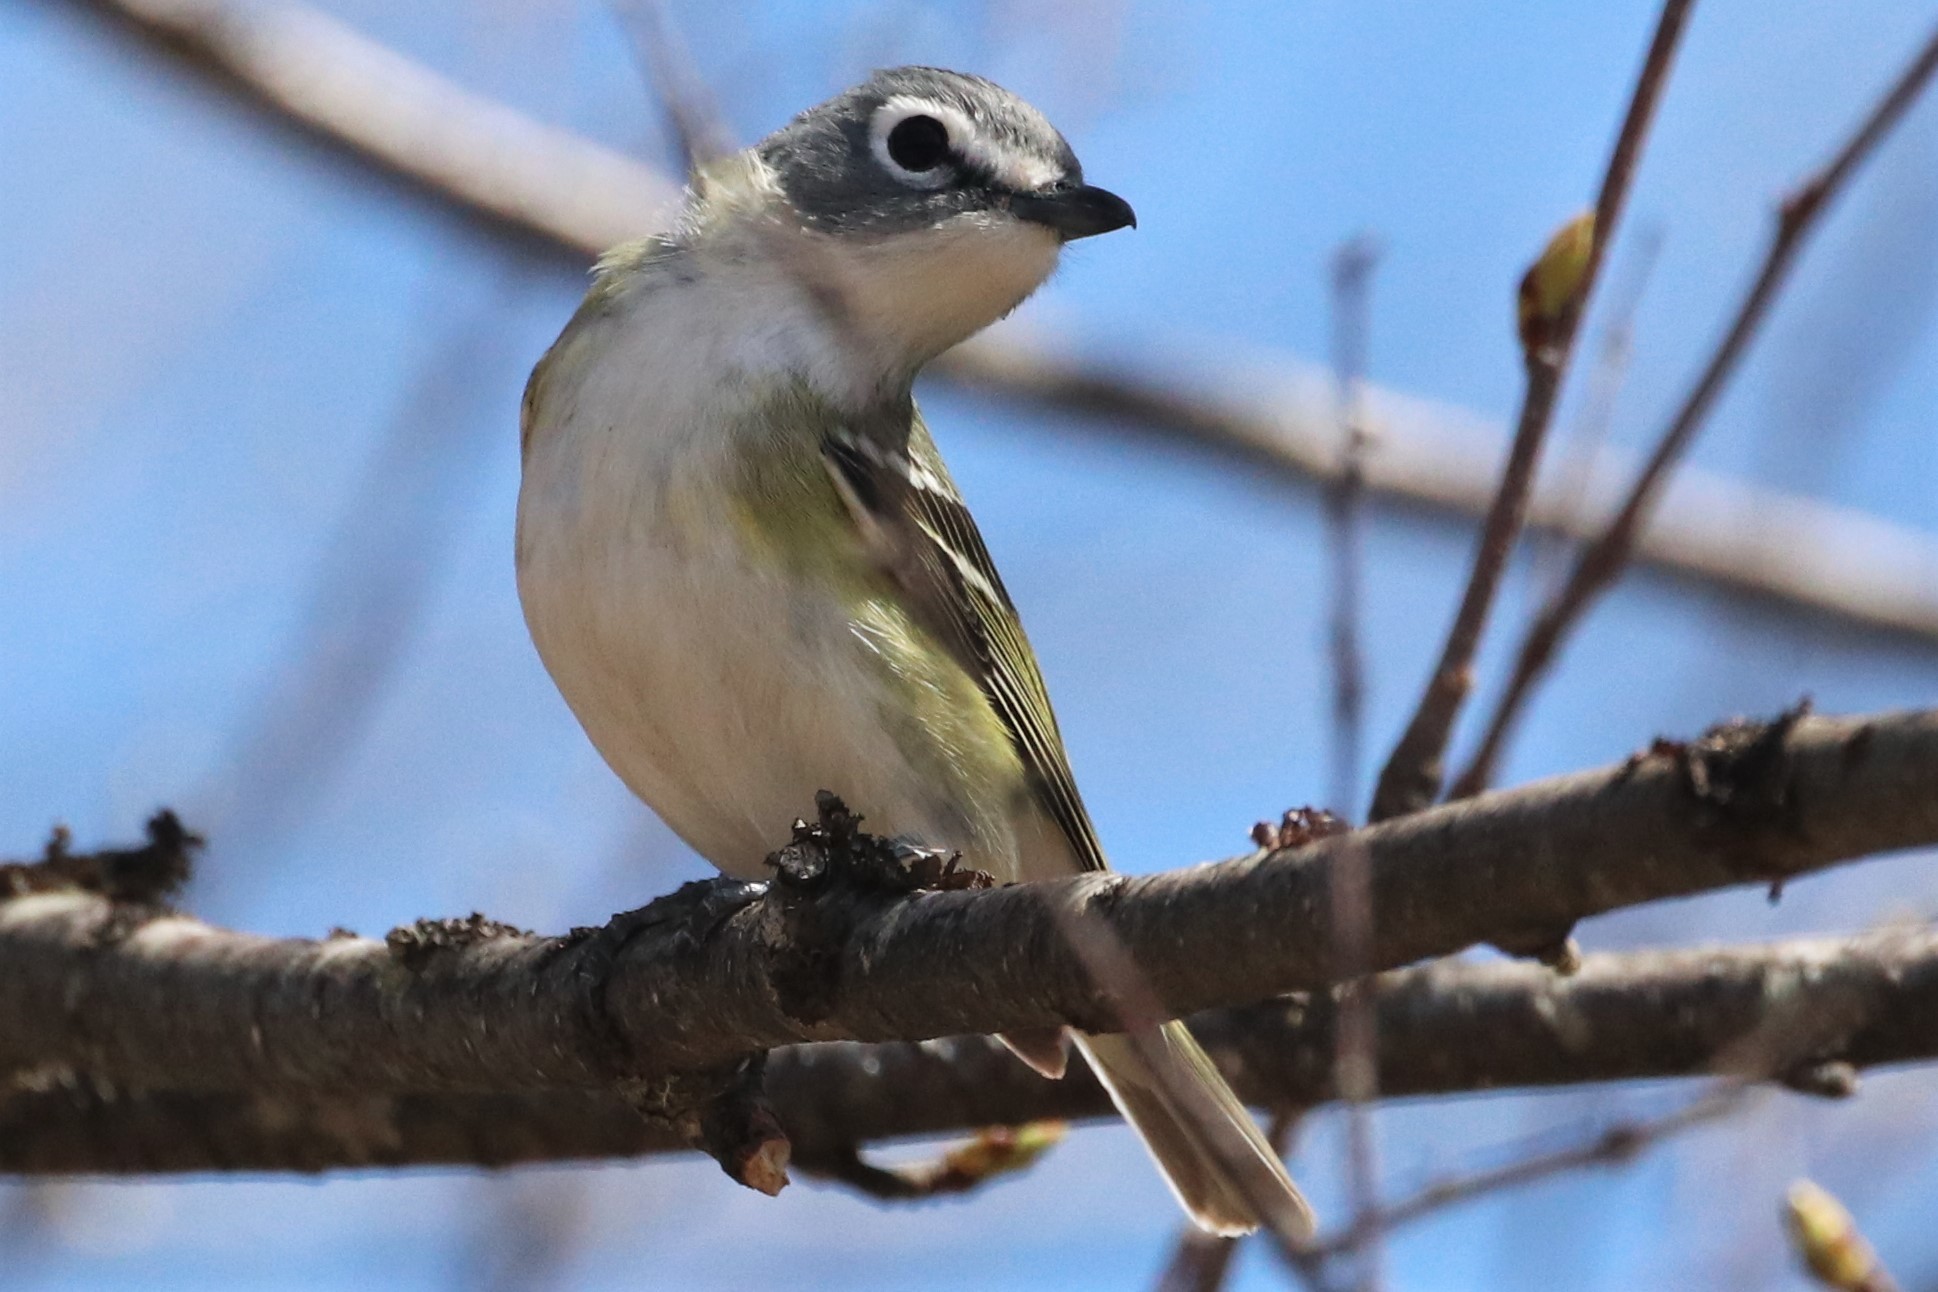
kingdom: Animalia
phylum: Chordata
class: Aves
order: Passeriformes
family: Vireonidae
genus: Vireo
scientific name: Vireo solitarius
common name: Blue-headed vireo
